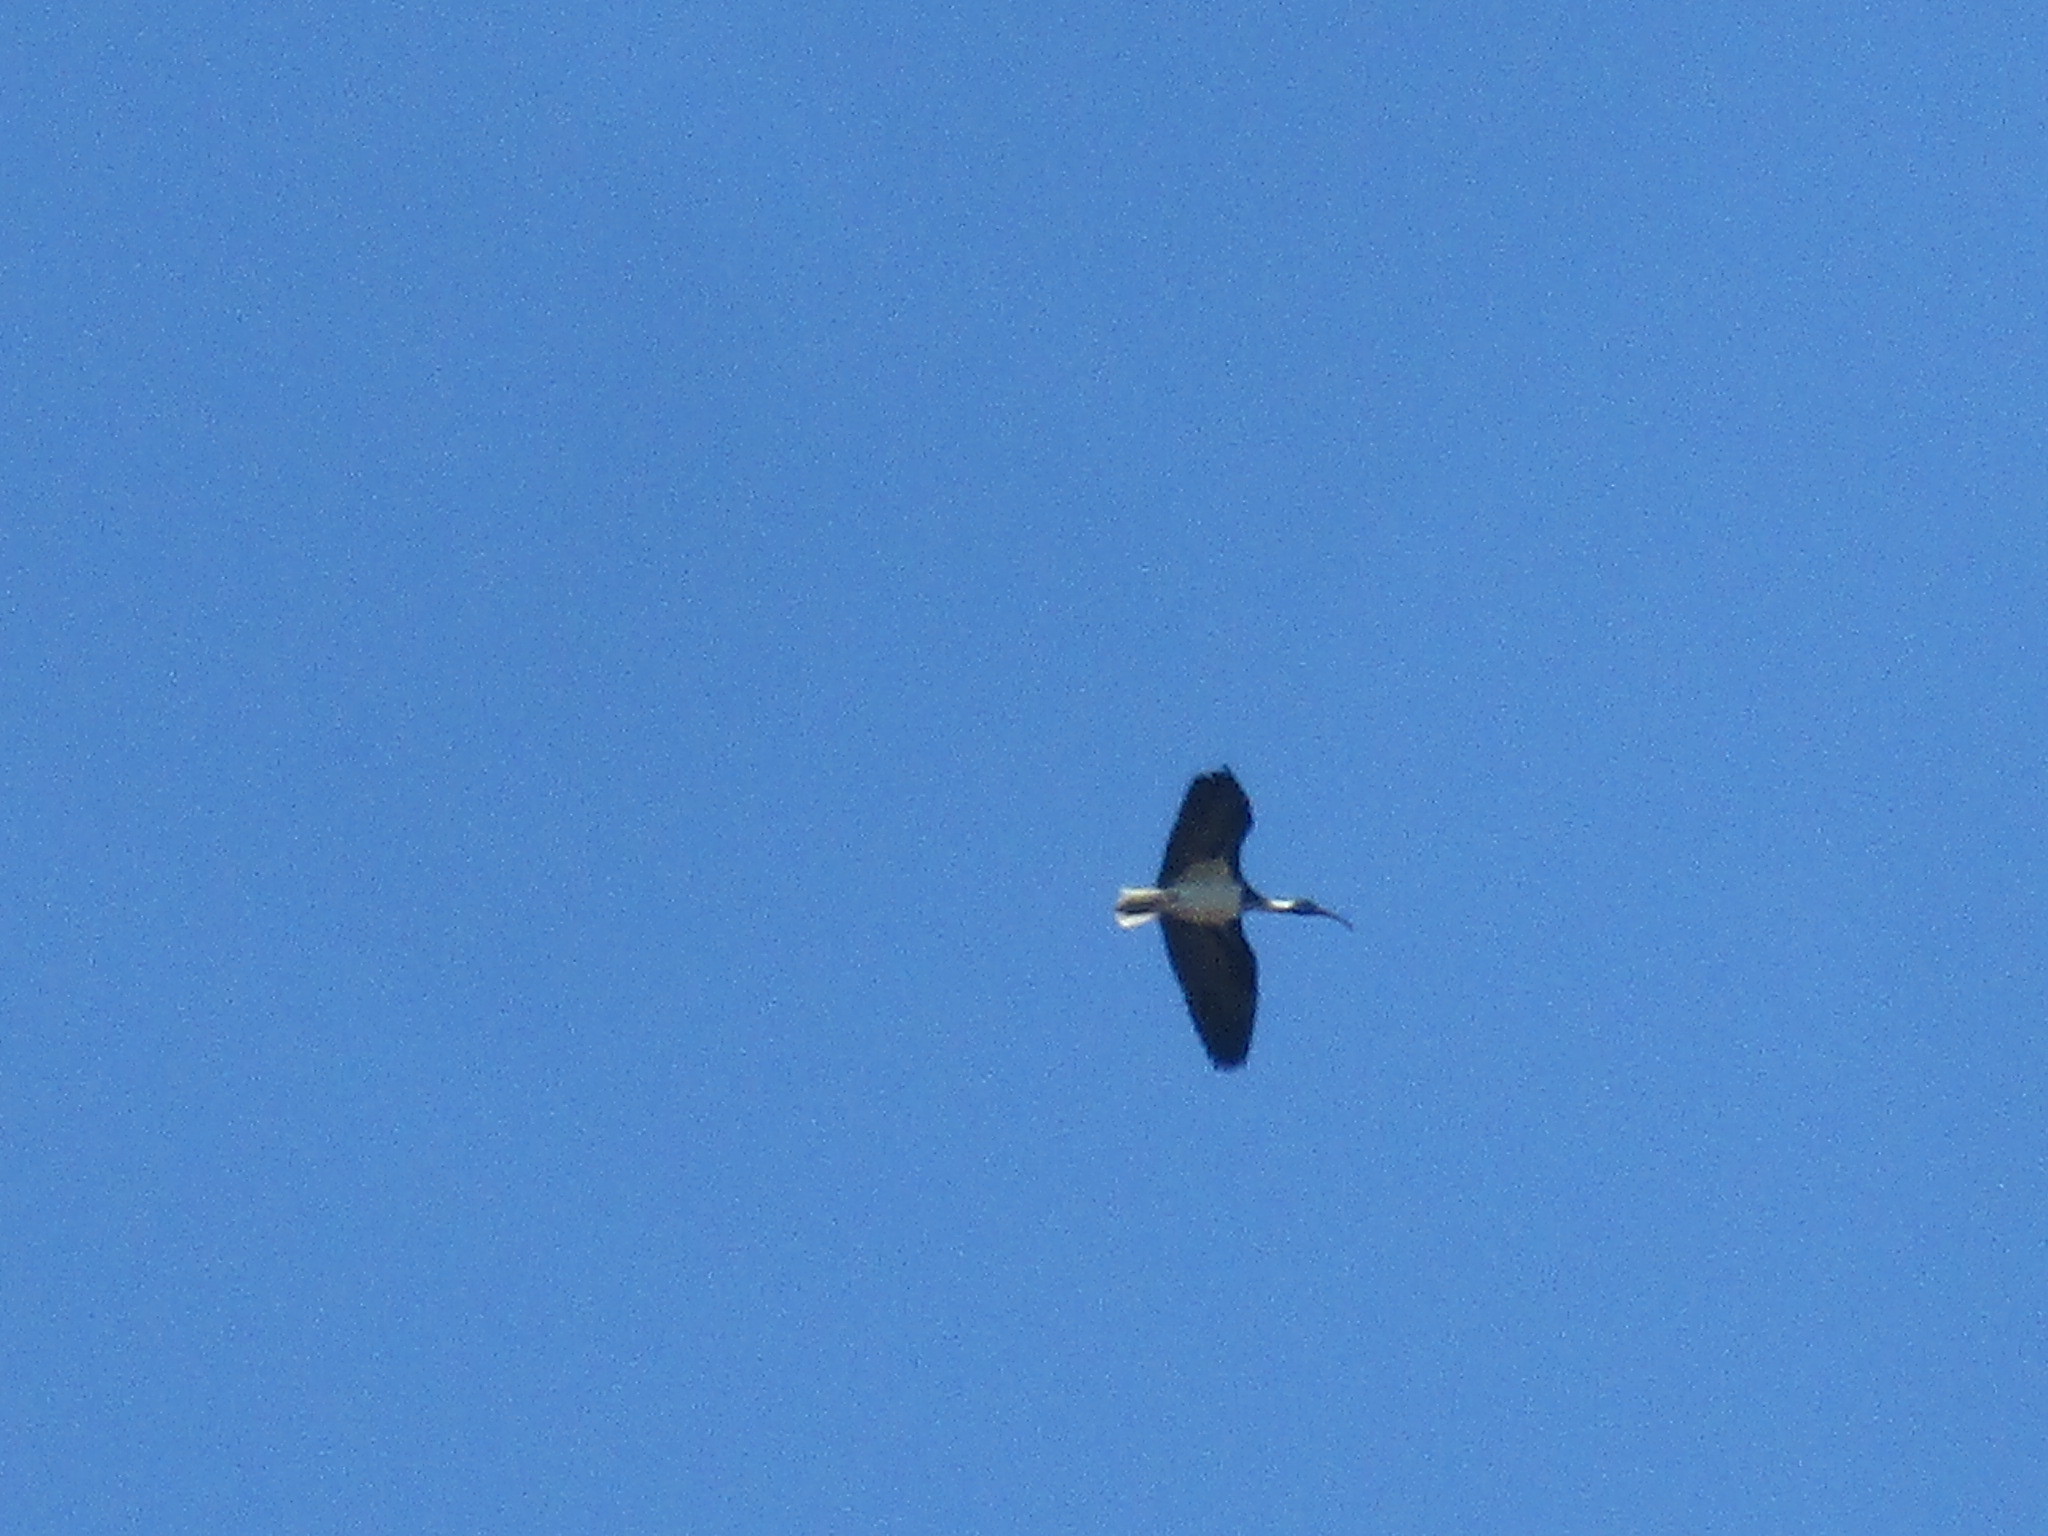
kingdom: Animalia
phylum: Chordata
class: Aves
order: Pelecaniformes
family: Threskiornithidae
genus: Threskiornis
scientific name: Threskiornis spinicollis
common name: Straw-necked ibis
